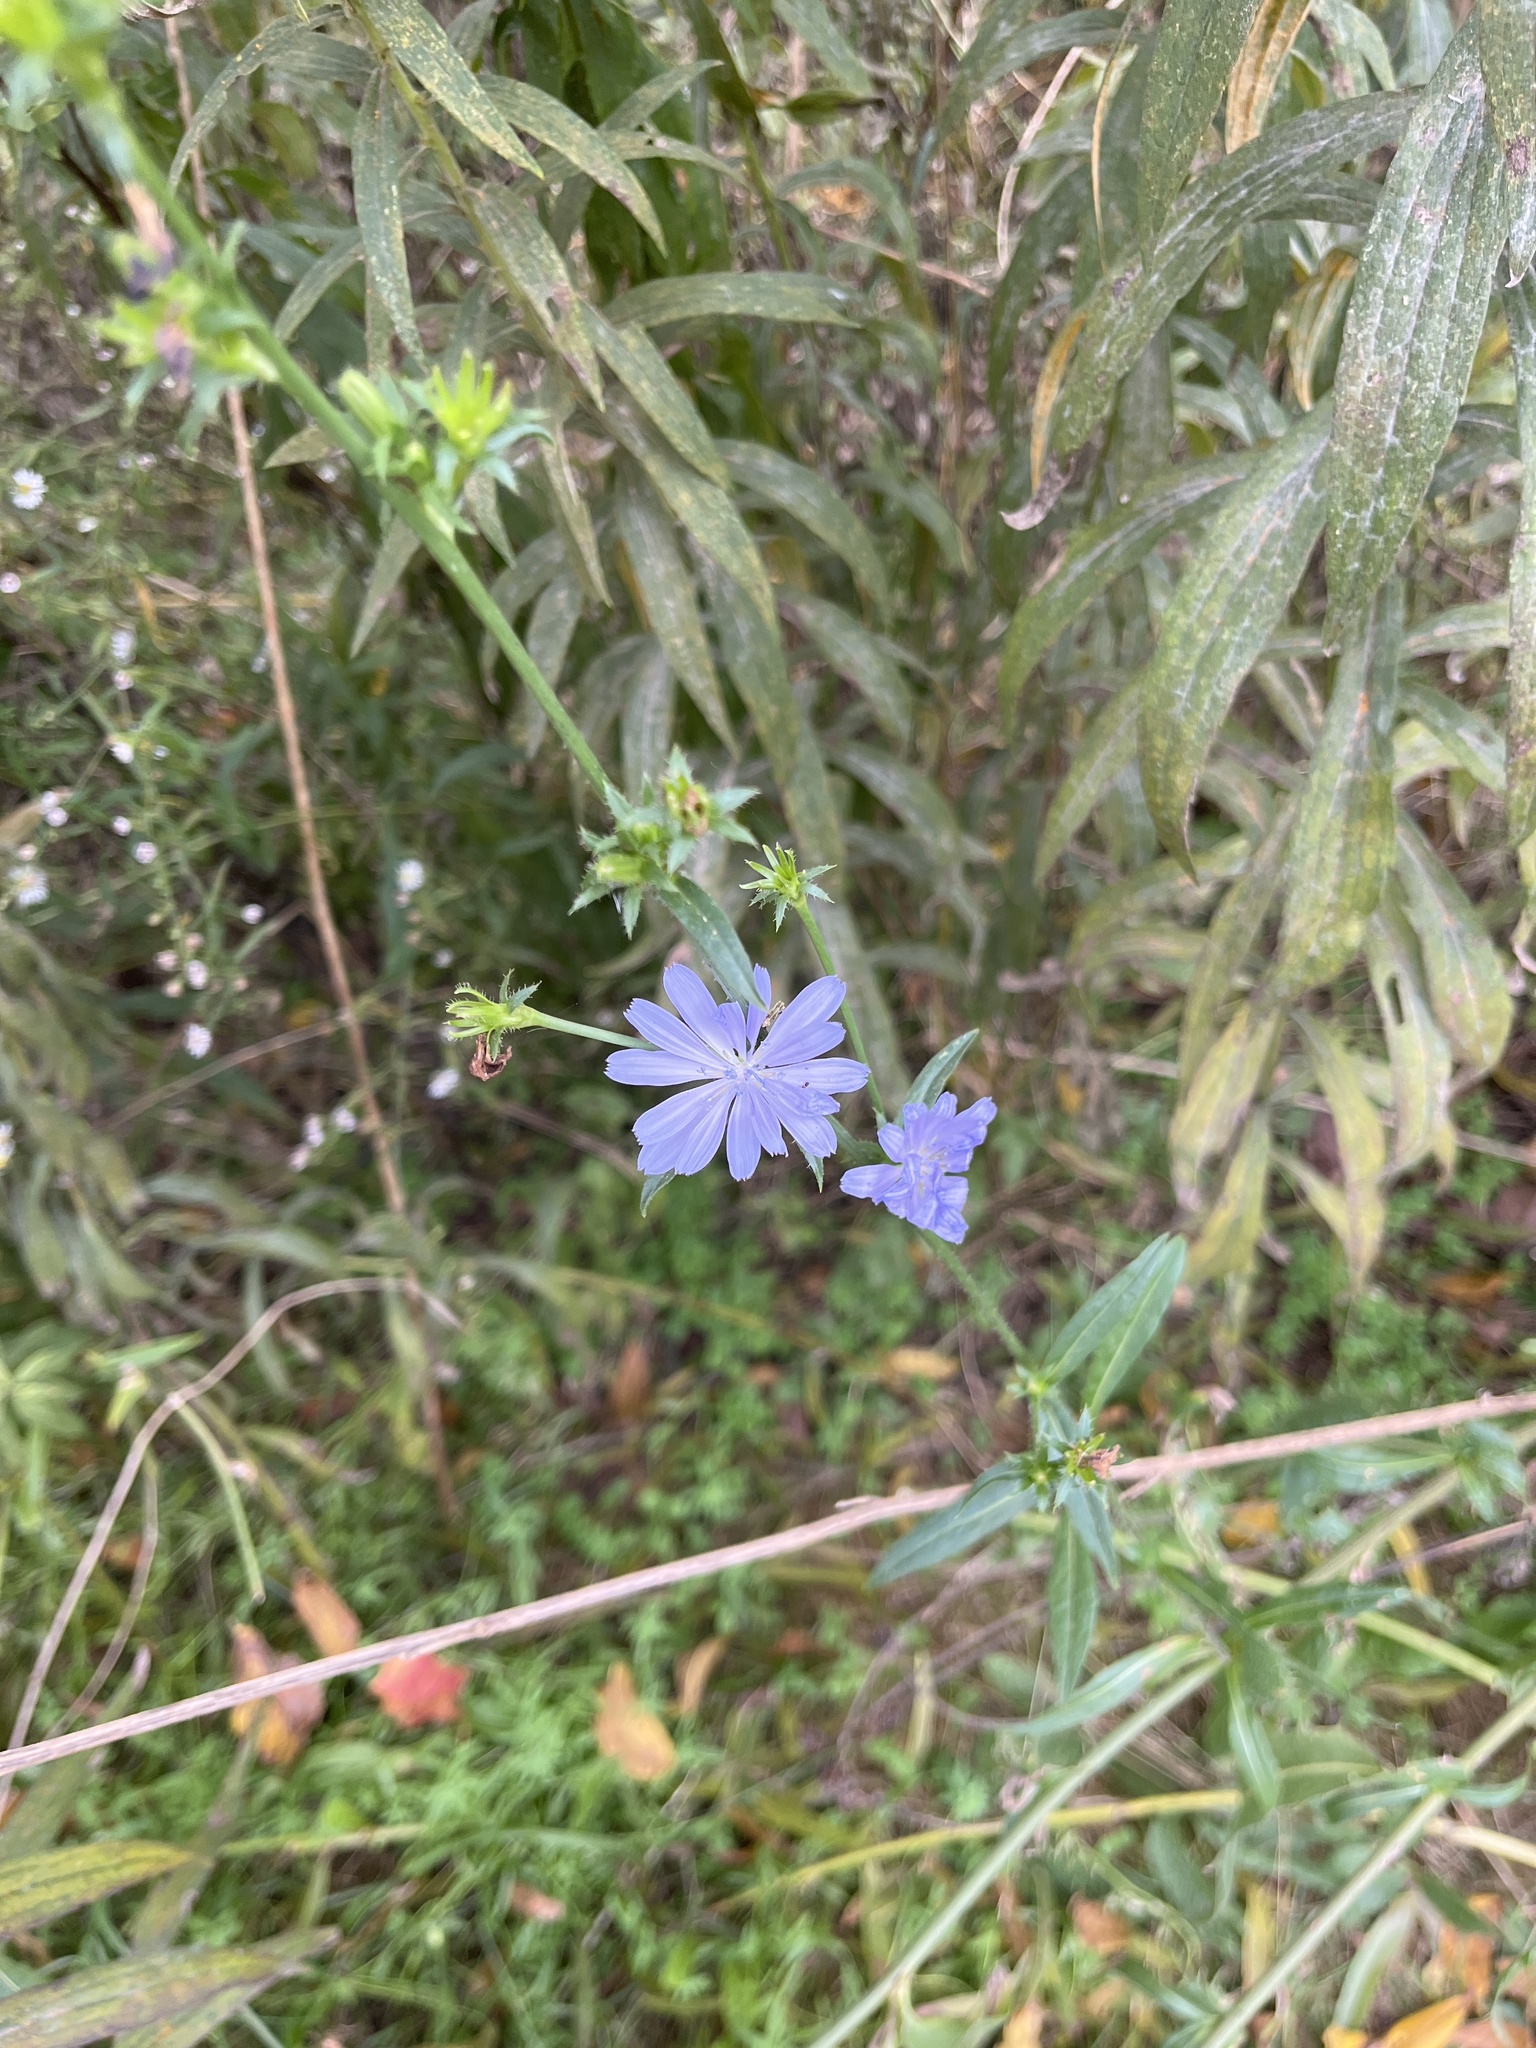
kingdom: Plantae
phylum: Tracheophyta
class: Magnoliopsida
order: Asterales
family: Asteraceae
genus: Cichorium
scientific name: Cichorium intybus
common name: Chicory
